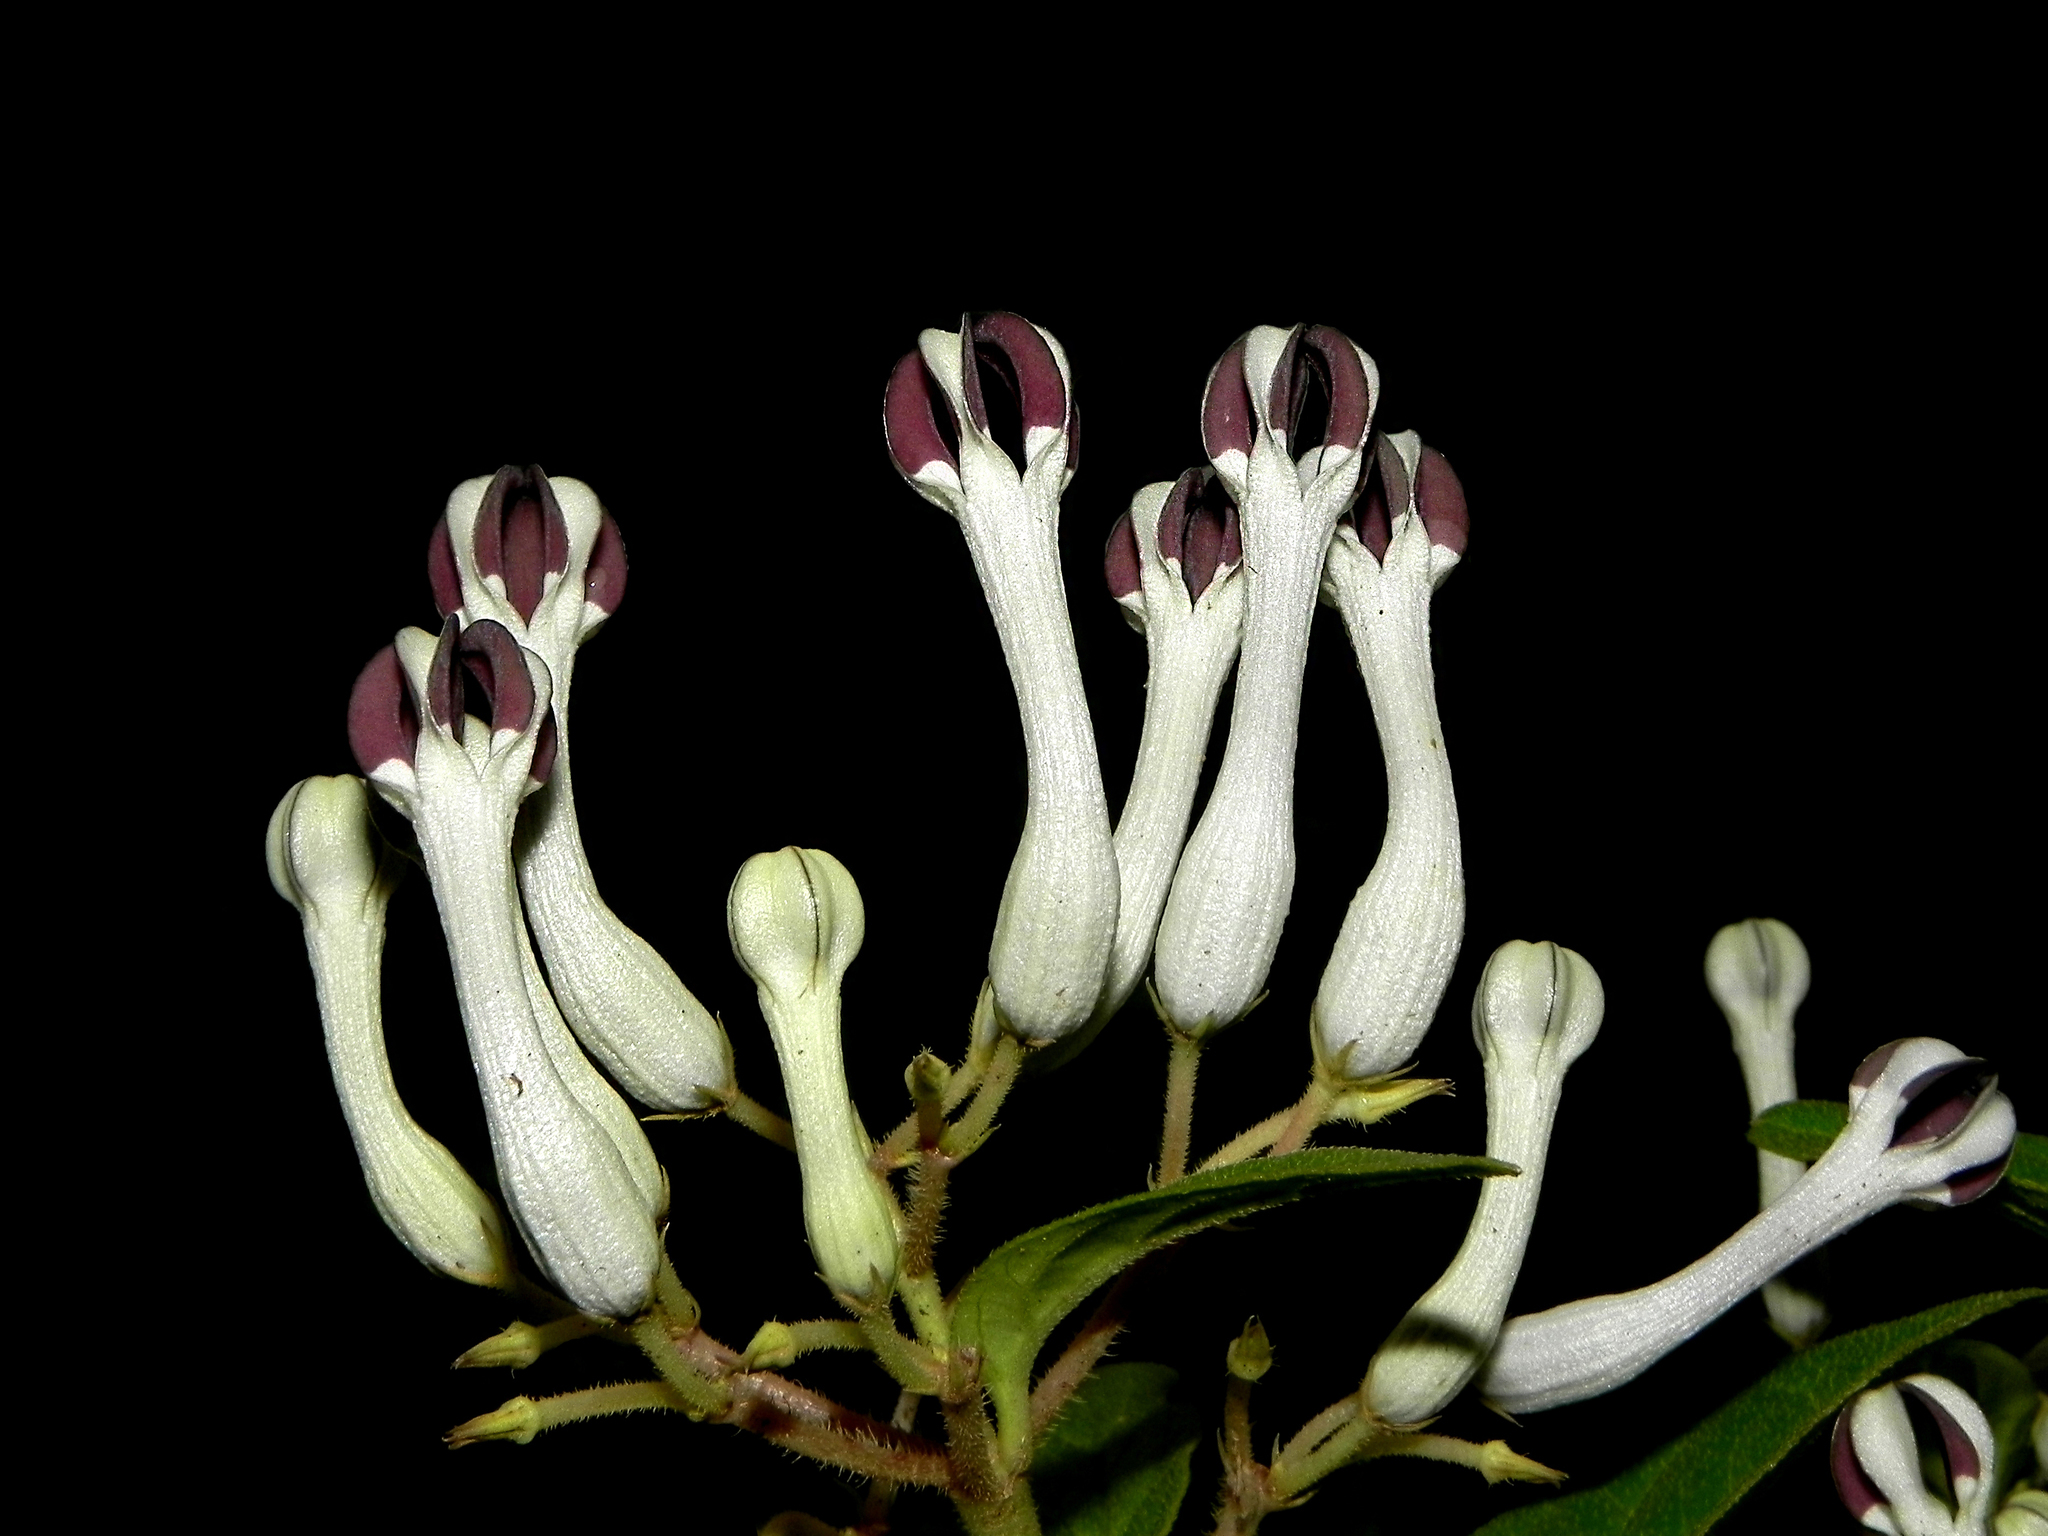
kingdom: Plantae
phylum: Tracheophyta
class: Magnoliopsida
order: Gentianales
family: Apocynaceae
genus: Ceropegia
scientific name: Ceropegia lawii
